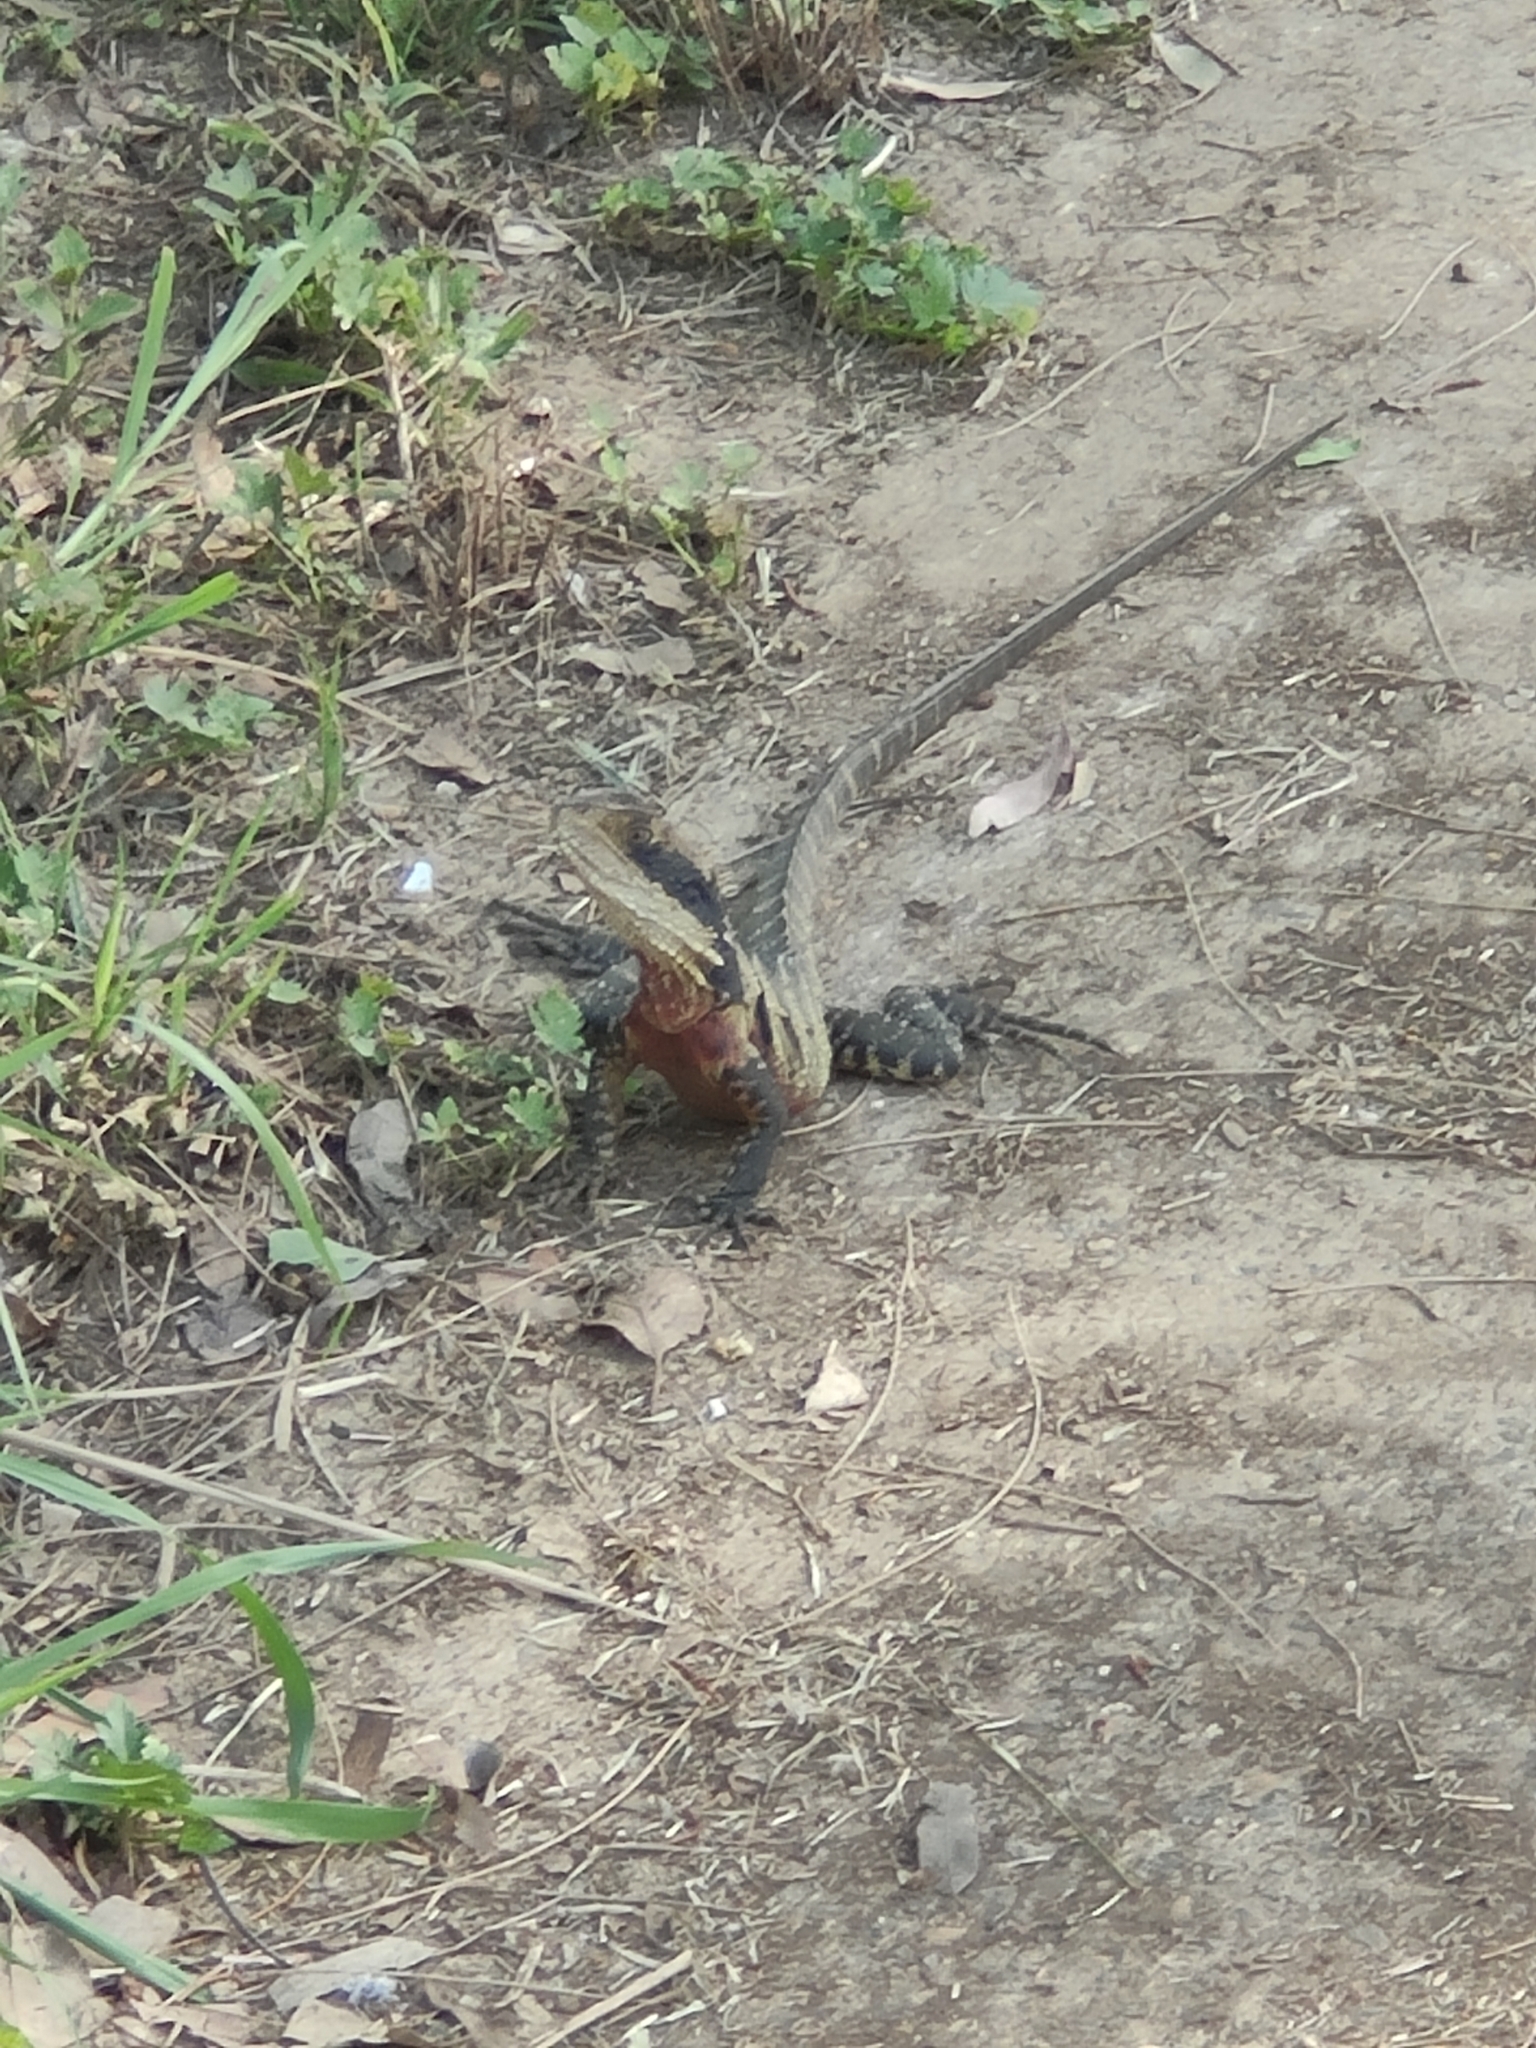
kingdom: Animalia
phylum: Chordata
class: Squamata
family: Agamidae
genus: Intellagama
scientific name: Intellagama lesueurii
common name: Eastern water dragon
